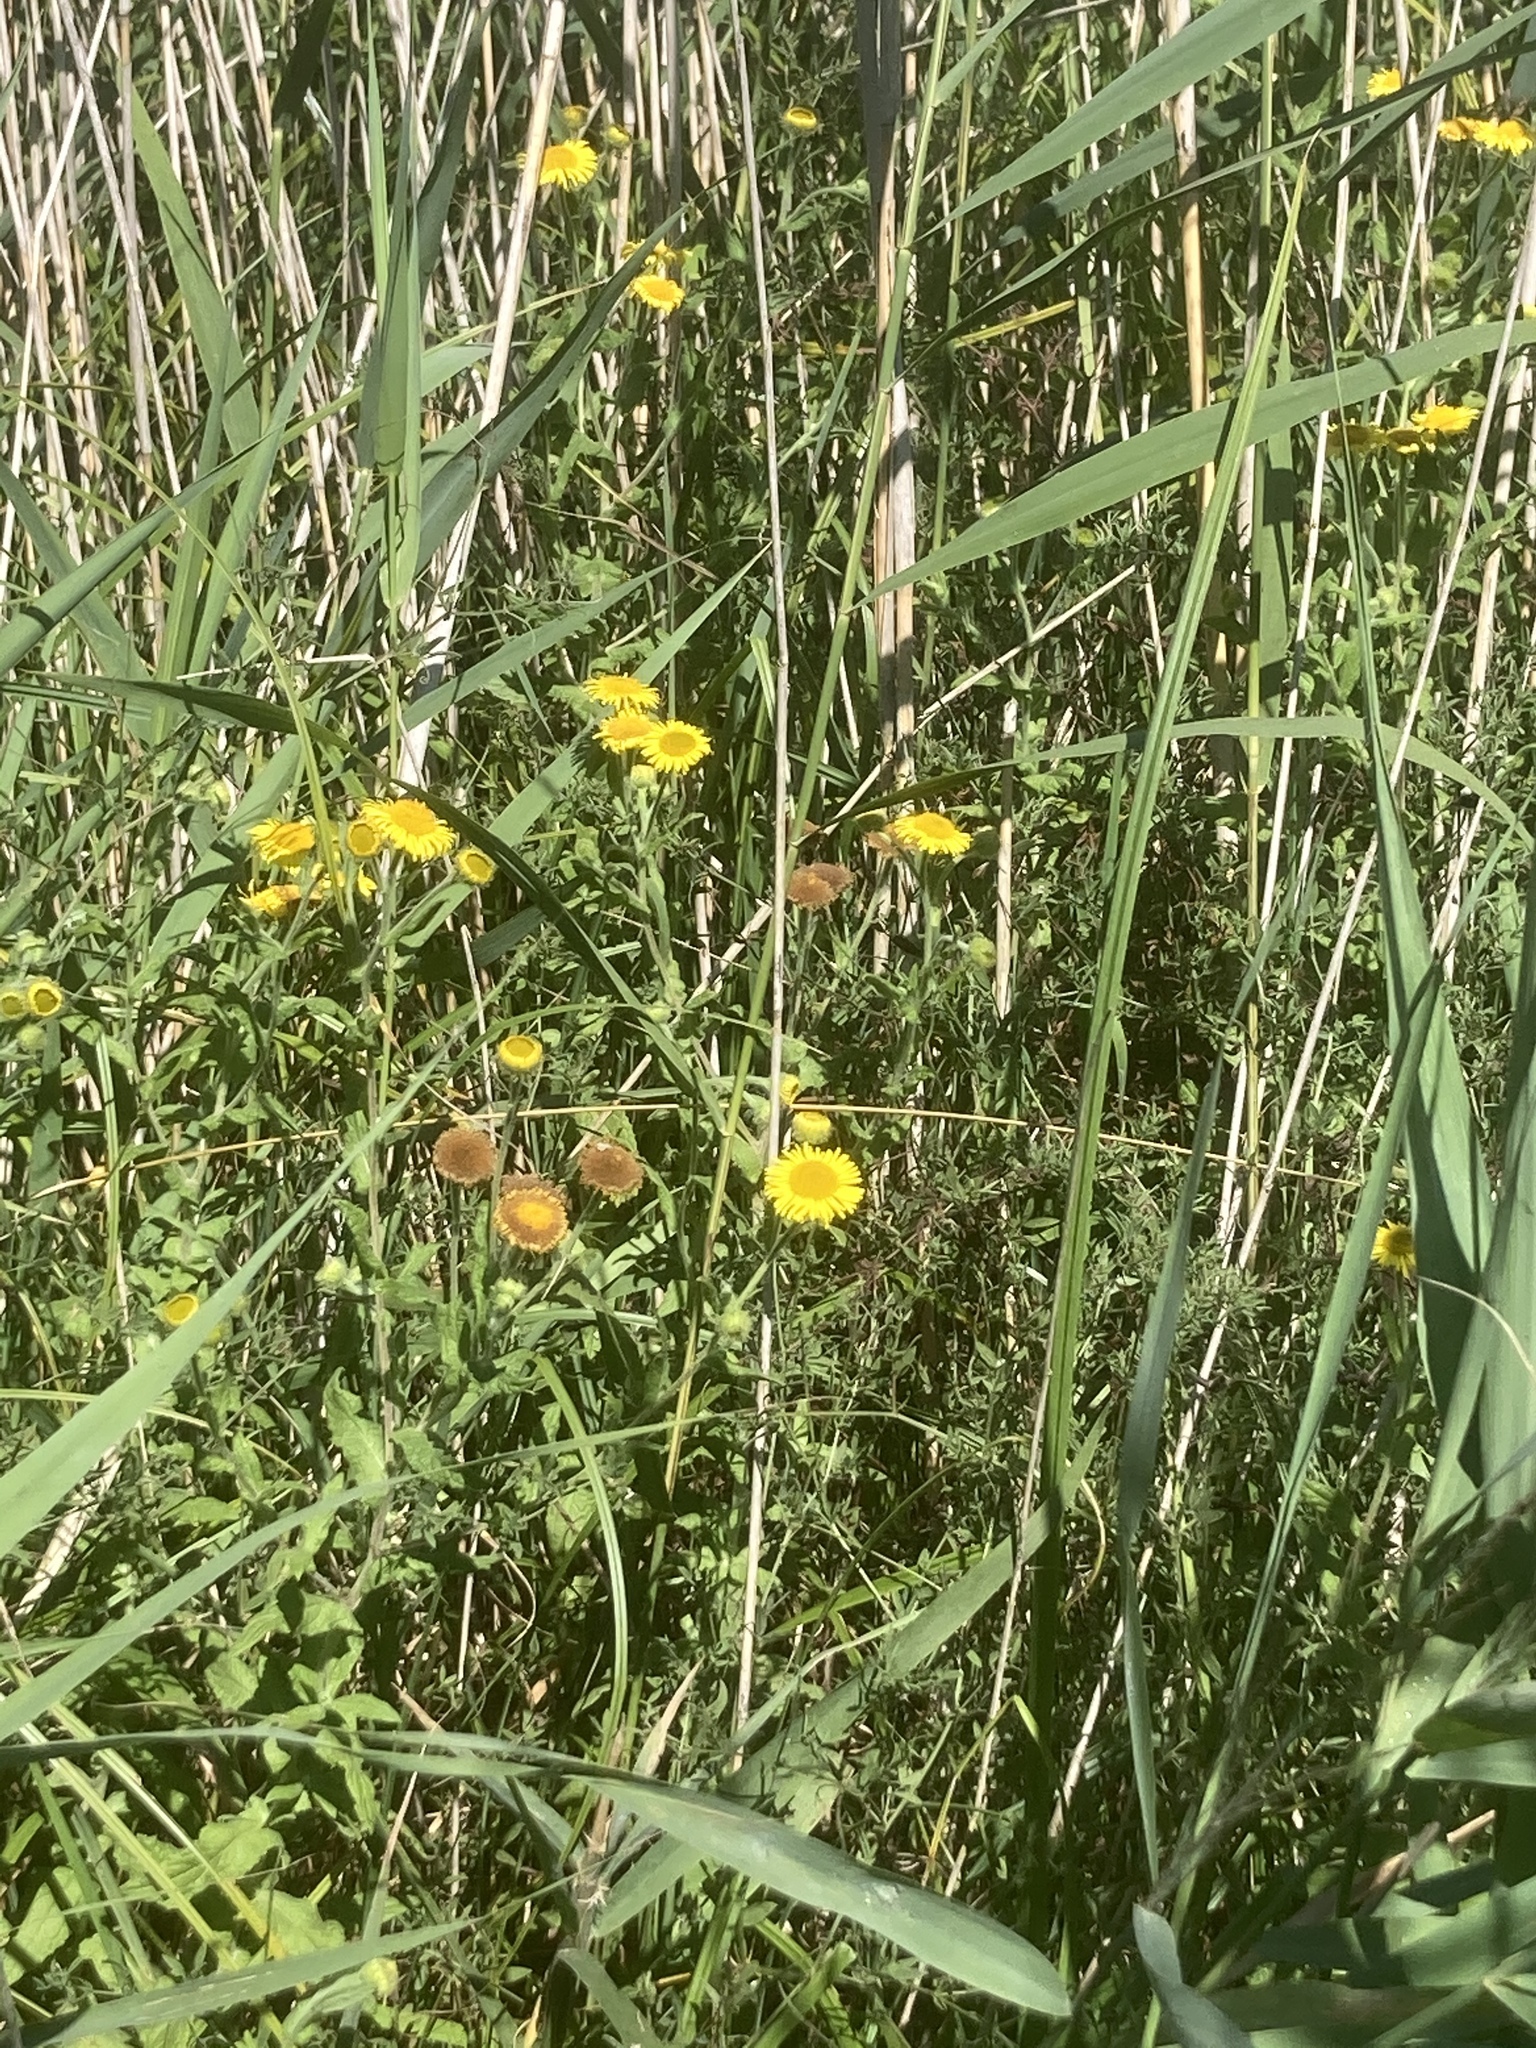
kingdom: Plantae
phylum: Tracheophyta
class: Magnoliopsida
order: Asterales
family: Asteraceae
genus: Pulicaria
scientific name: Pulicaria dysenterica
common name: Common fleabane
